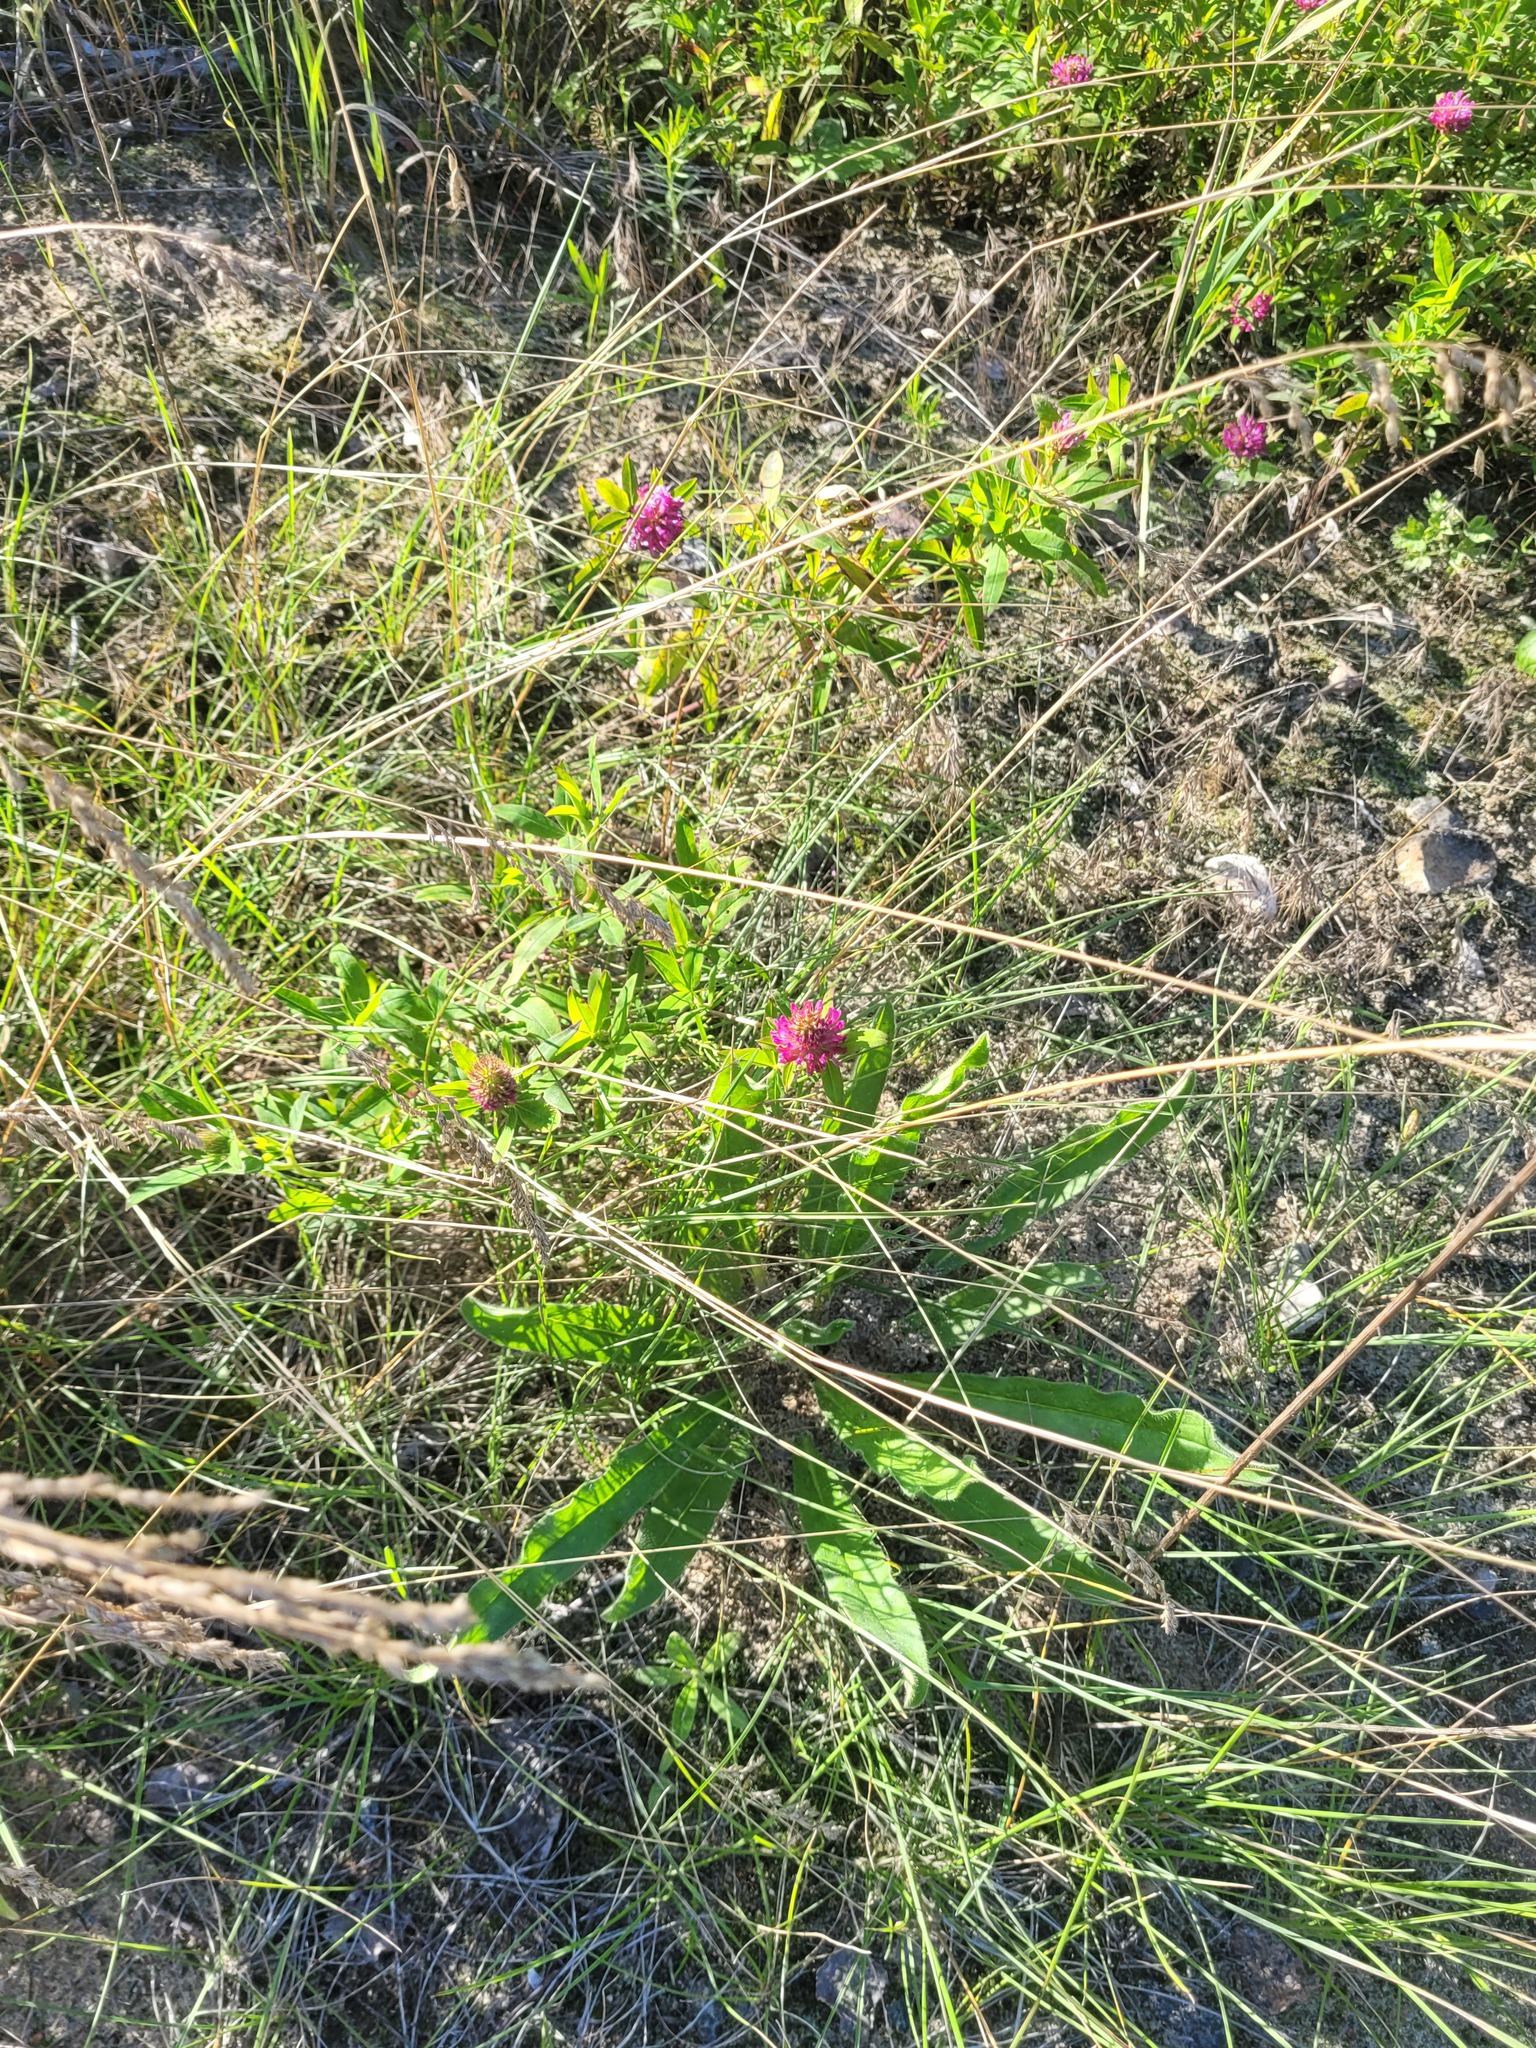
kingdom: Plantae
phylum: Tracheophyta
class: Magnoliopsida
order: Fabales
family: Fabaceae
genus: Trifolium
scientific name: Trifolium medium
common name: Zigzag clover
